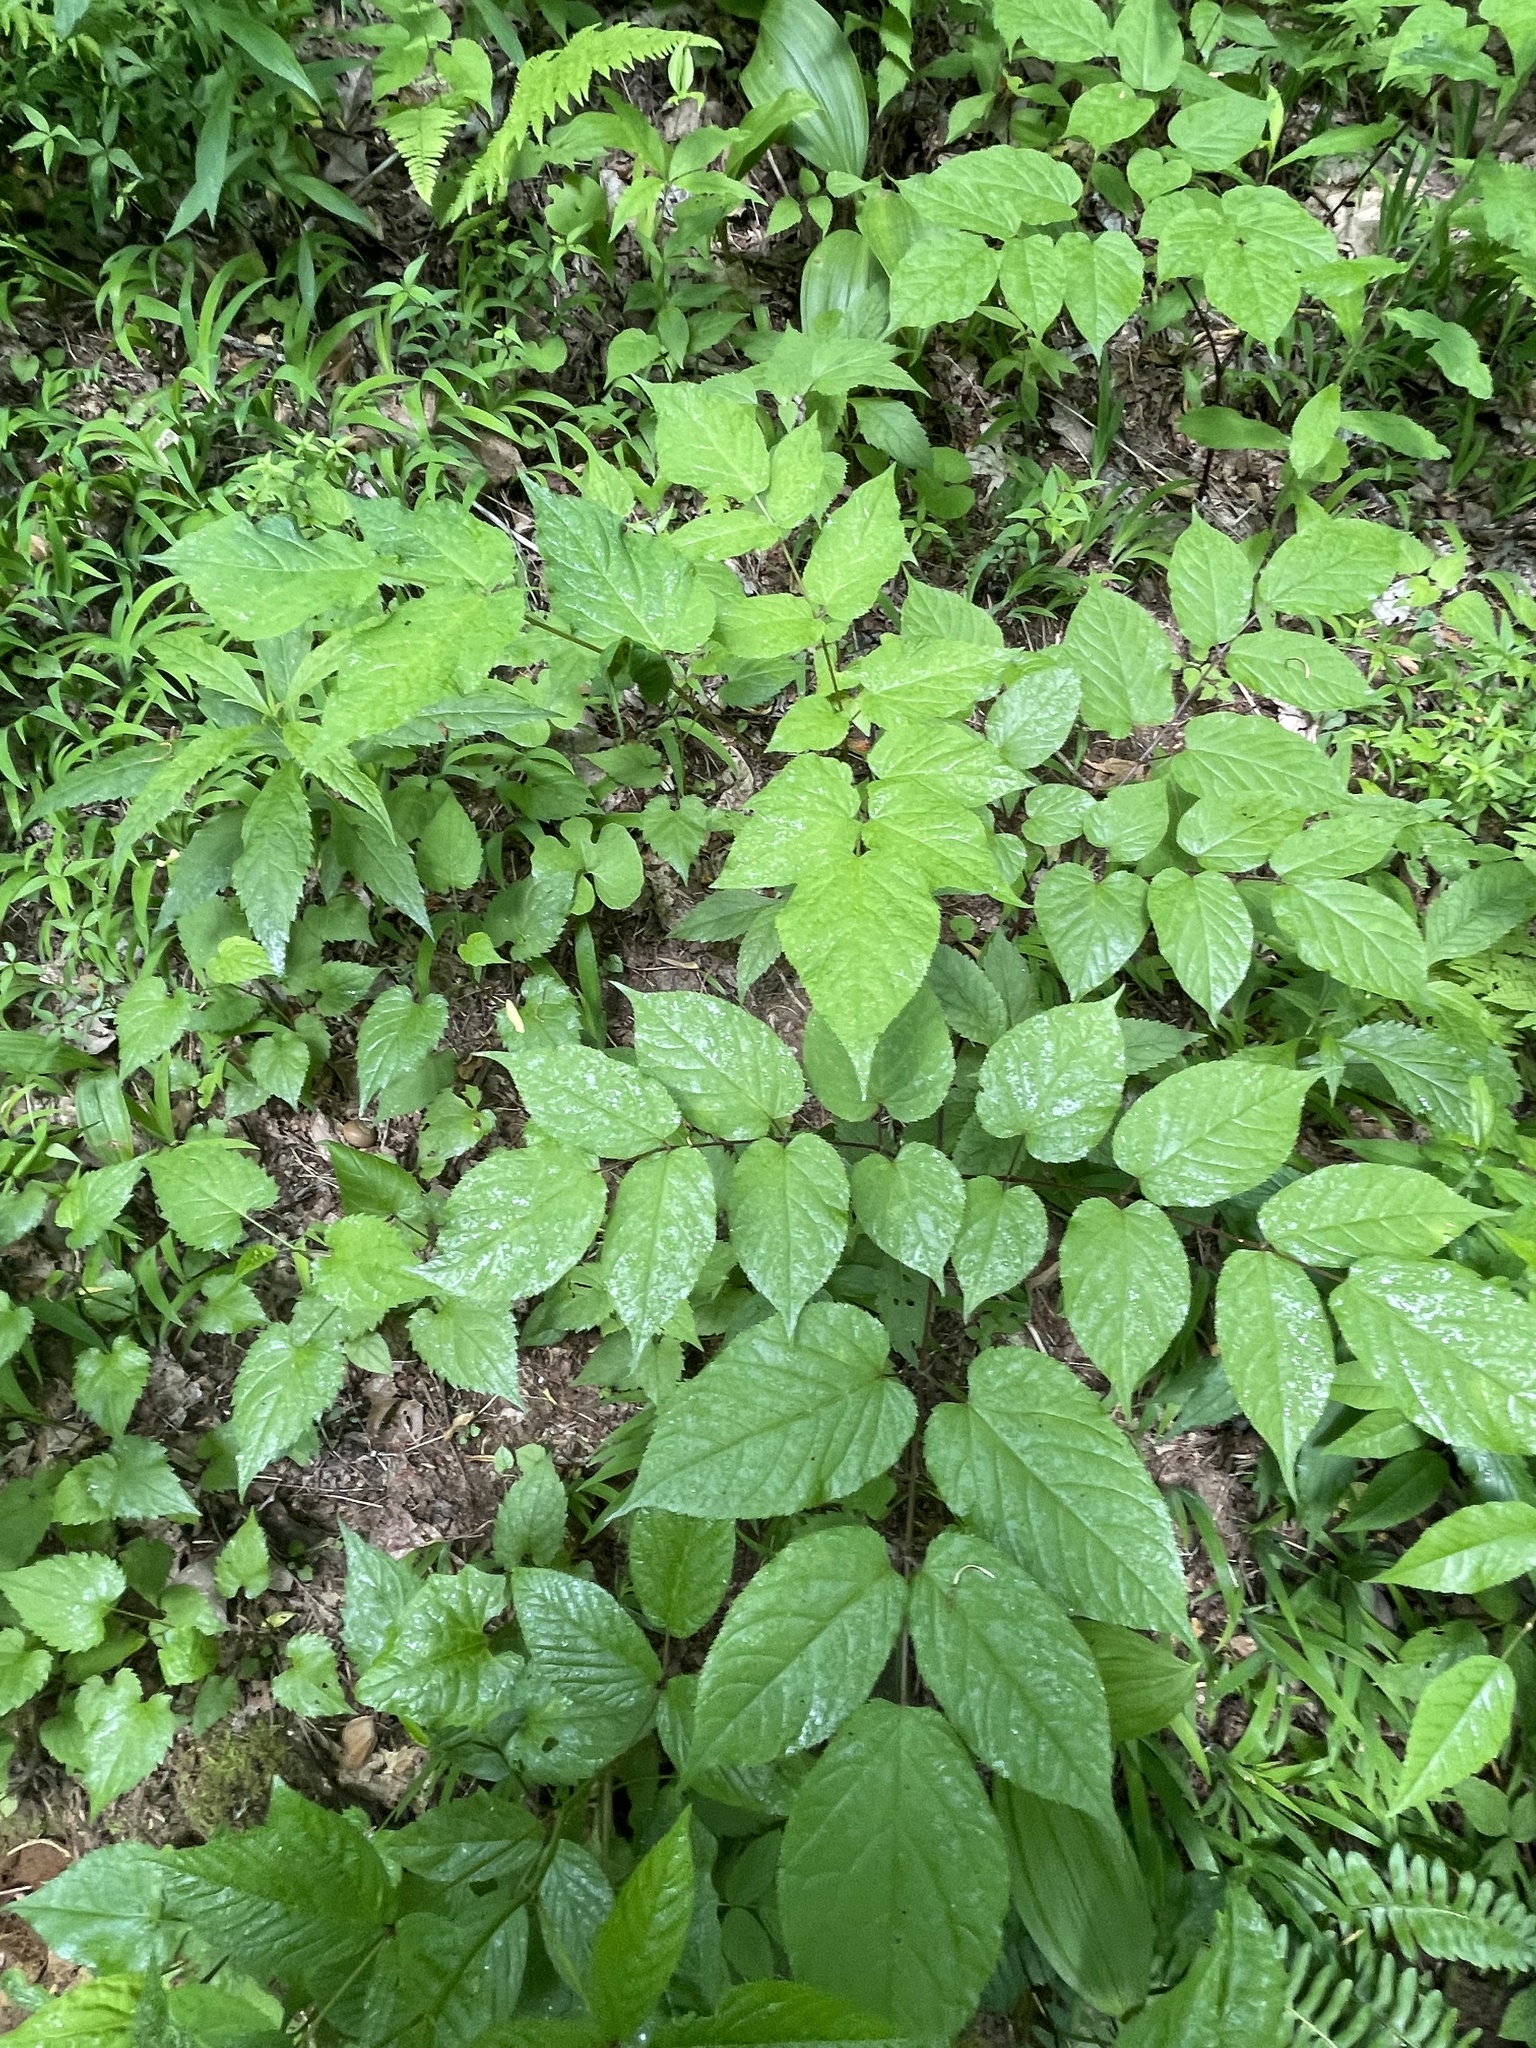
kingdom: Plantae
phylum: Tracheophyta
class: Magnoliopsida
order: Apiales
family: Araliaceae
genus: Aralia
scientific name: Aralia racemosa
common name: American-spikenard
